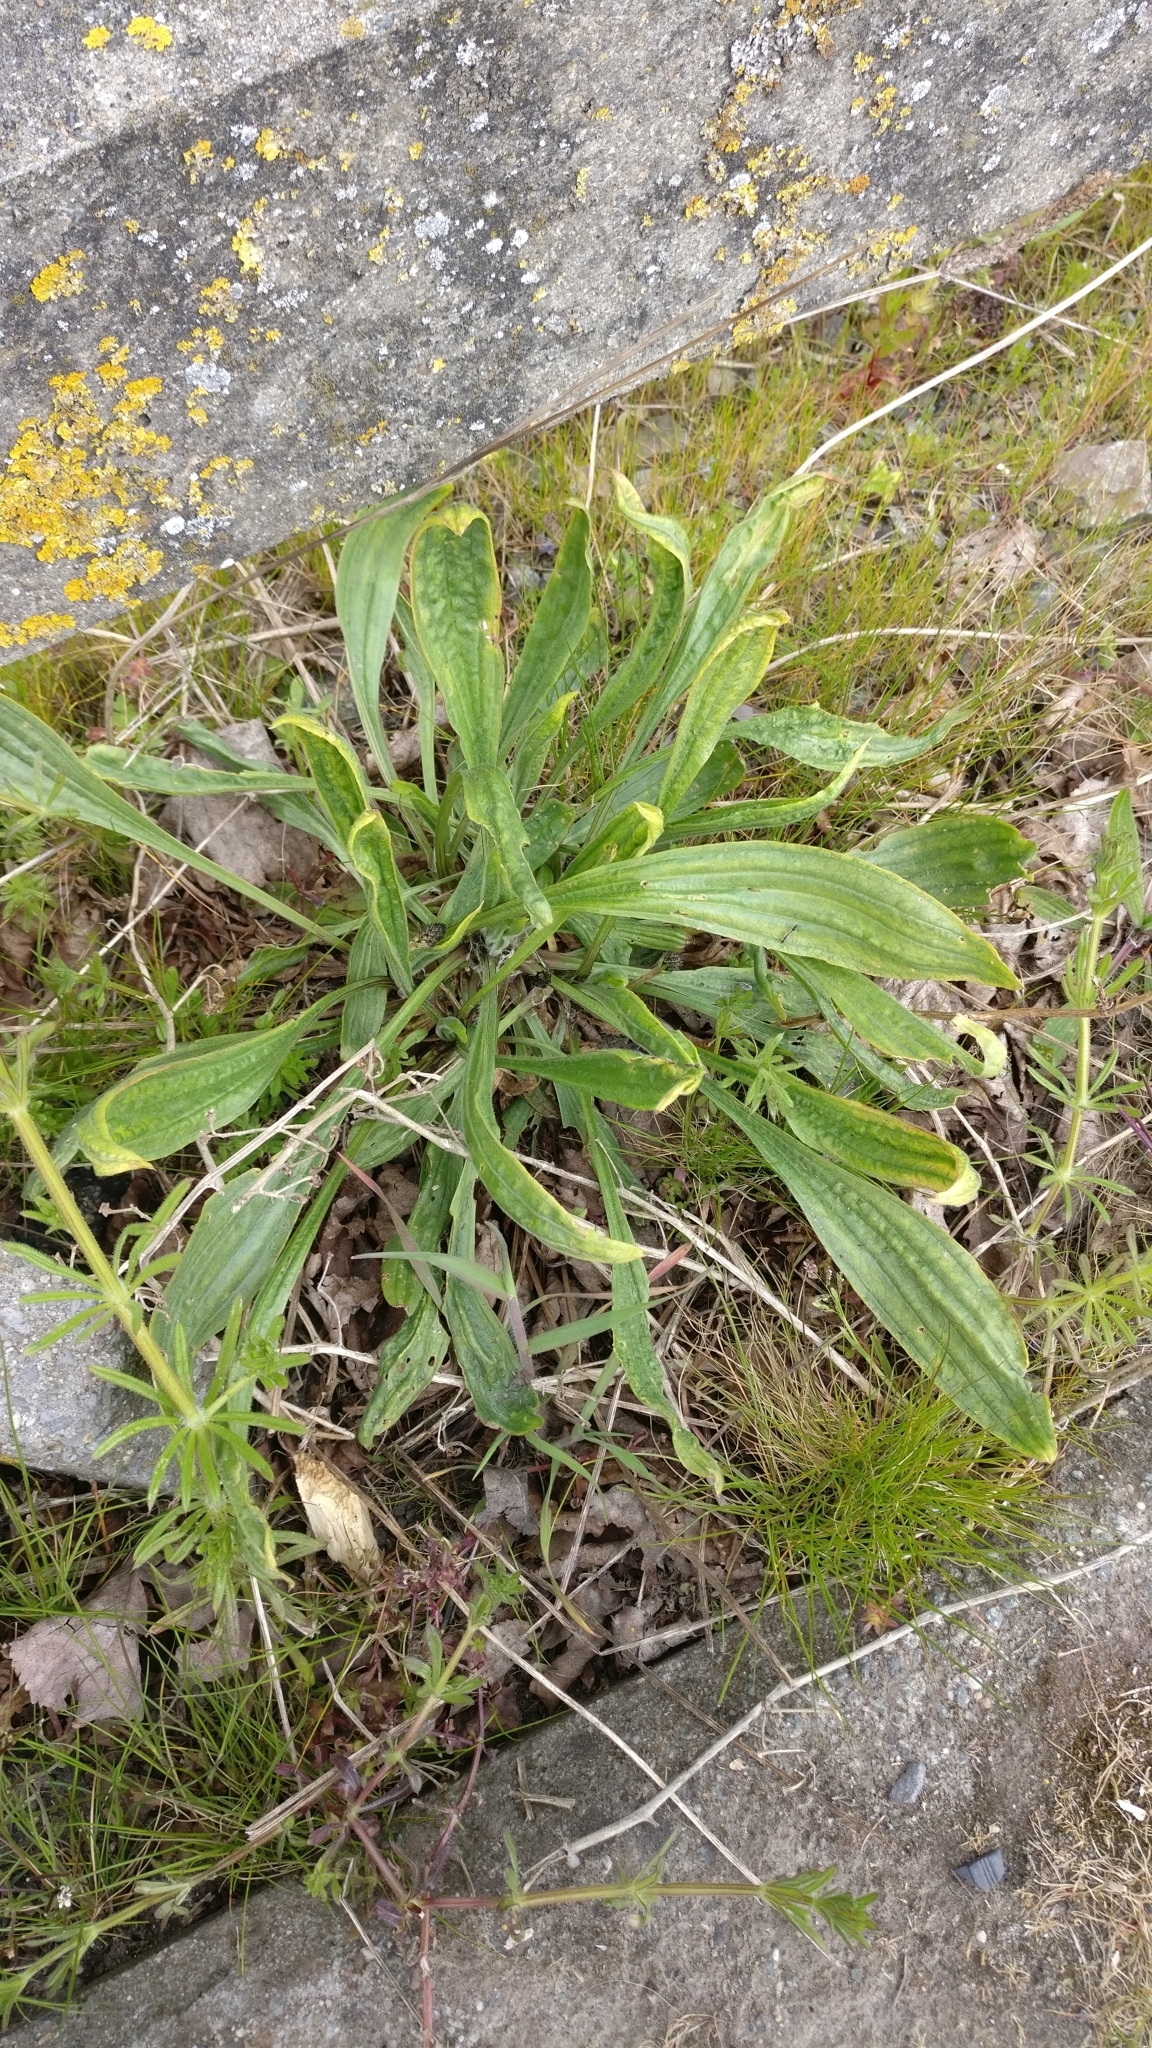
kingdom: Plantae
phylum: Tracheophyta
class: Magnoliopsida
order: Lamiales
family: Plantaginaceae
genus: Plantago
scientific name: Plantago lanceolata
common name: Ribwort plantain
